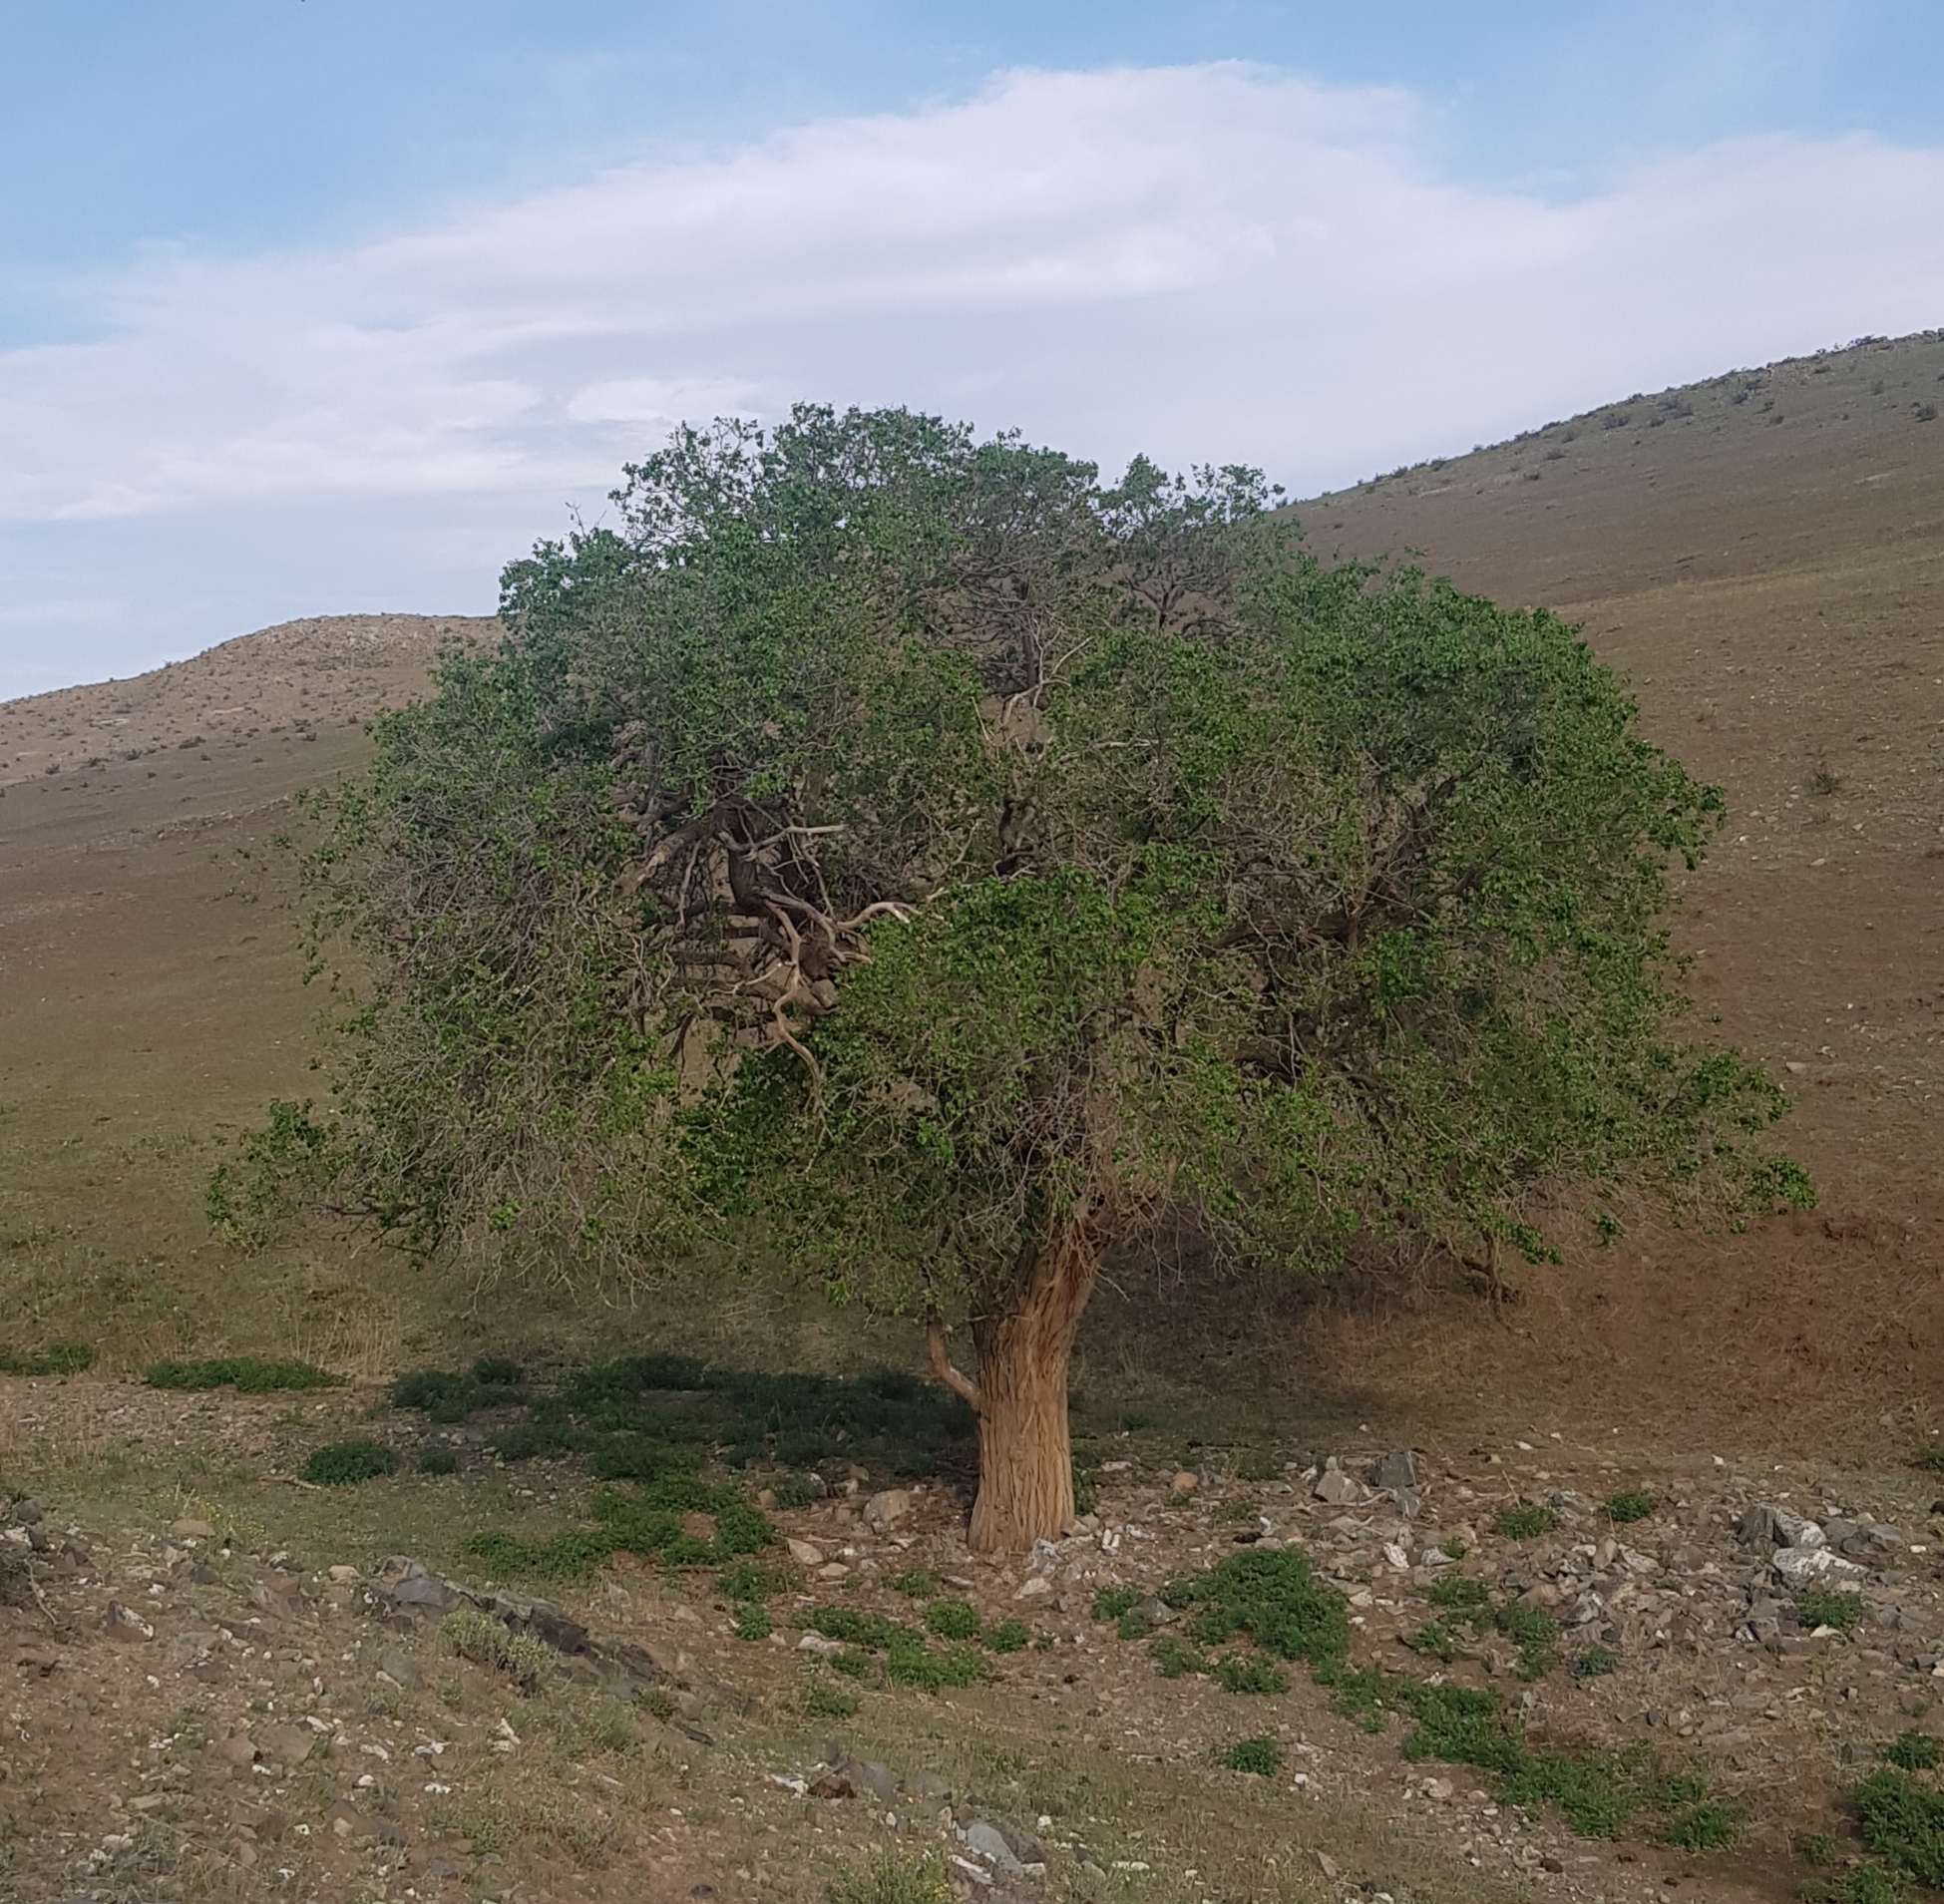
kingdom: Plantae
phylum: Tracheophyta
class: Magnoliopsida
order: Rosales
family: Ulmaceae
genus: Ulmus
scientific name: Ulmus pumila
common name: Siberian elm
